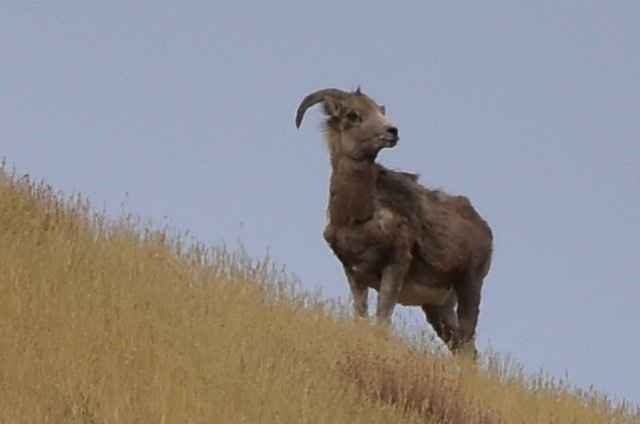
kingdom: Animalia
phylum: Chordata
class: Mammalia
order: Artiodactyla
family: Bovidae
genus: Ovis
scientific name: Ovis ammon
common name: Argali
